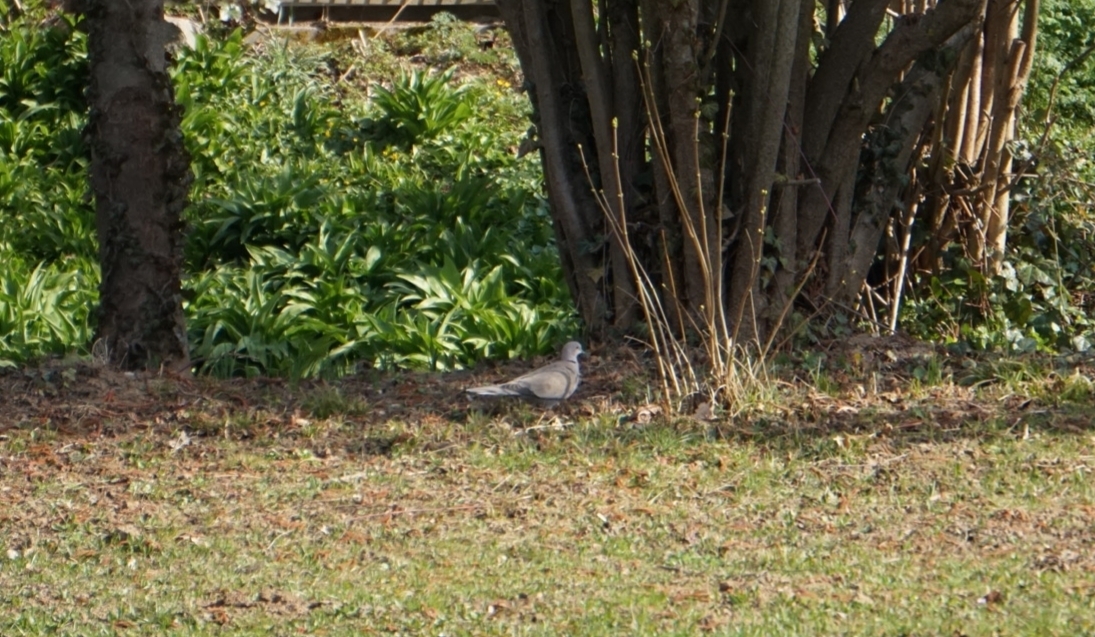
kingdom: Animalia
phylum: Chordata
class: Aves
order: Columbiformes
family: Columbidae
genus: Streptopelia
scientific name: Streptopelia decaocto
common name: Eurasian collared dove
